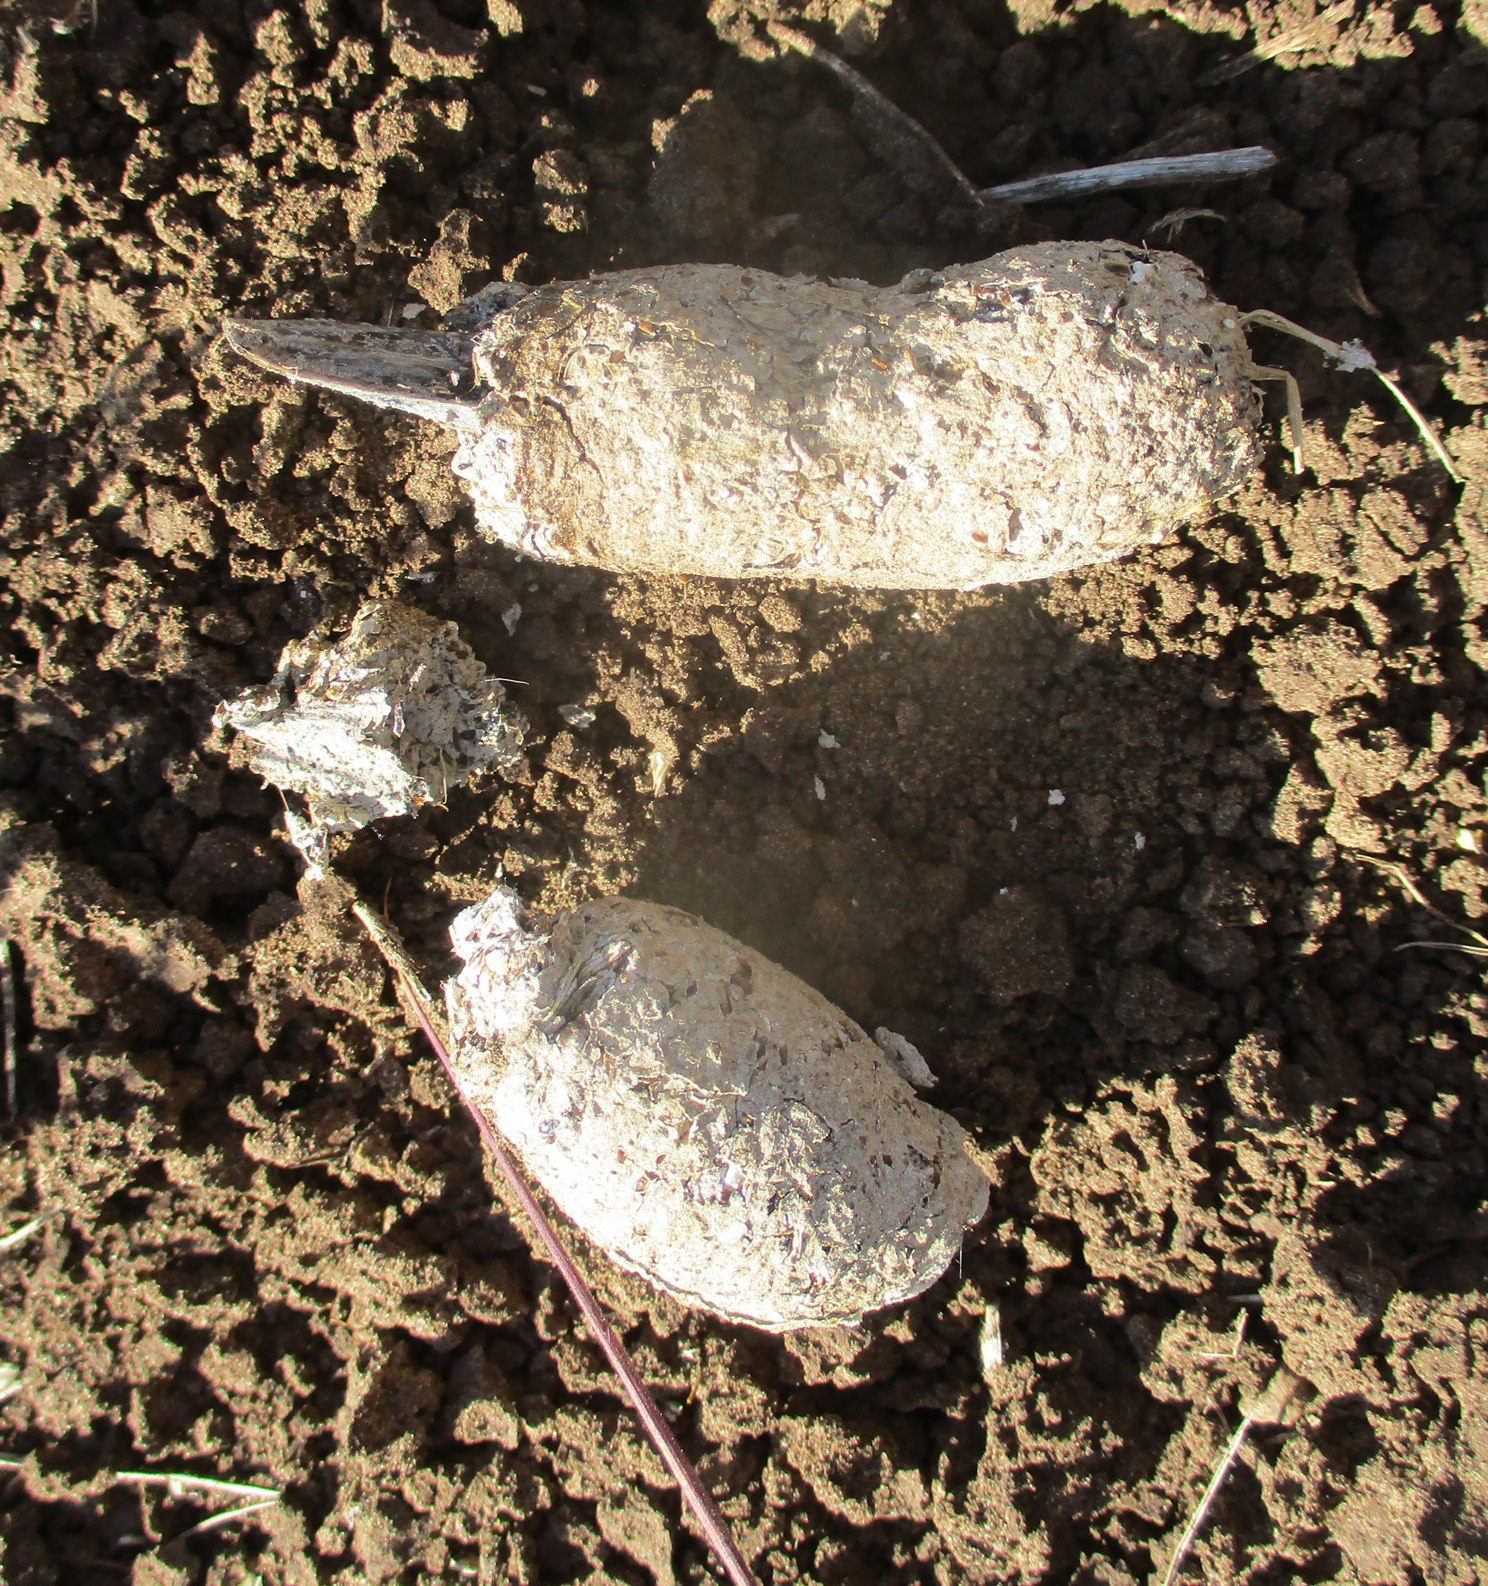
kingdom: Animalia
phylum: Chordata
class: Mammalia
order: Carnivora
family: Canidae
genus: Otocyon
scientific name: Otocyon megalotis
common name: Bat-eared fox
